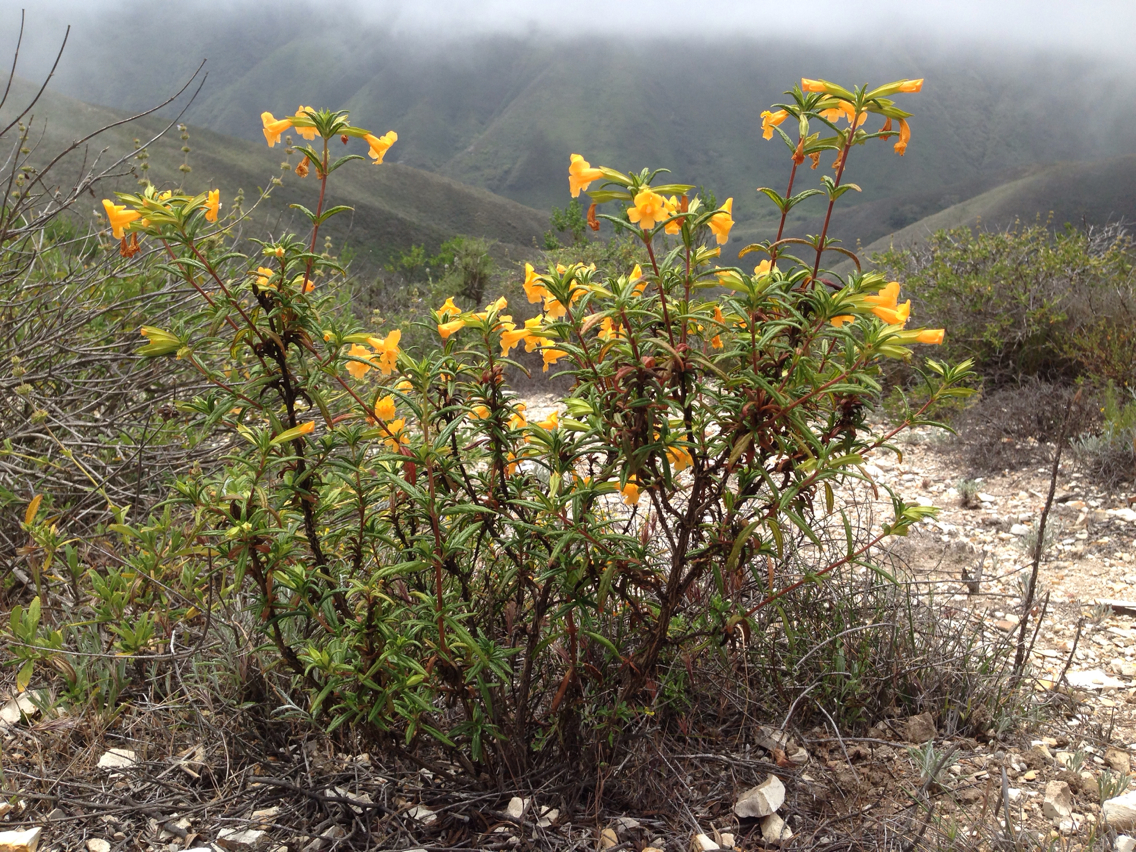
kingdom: Plantae
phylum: Tracheophyta
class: Magnoliopsida
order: Lamiales
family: Phrymaceae
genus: Diplacus
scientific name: Diplacus aurantiacus
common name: Bush monkey-flower
